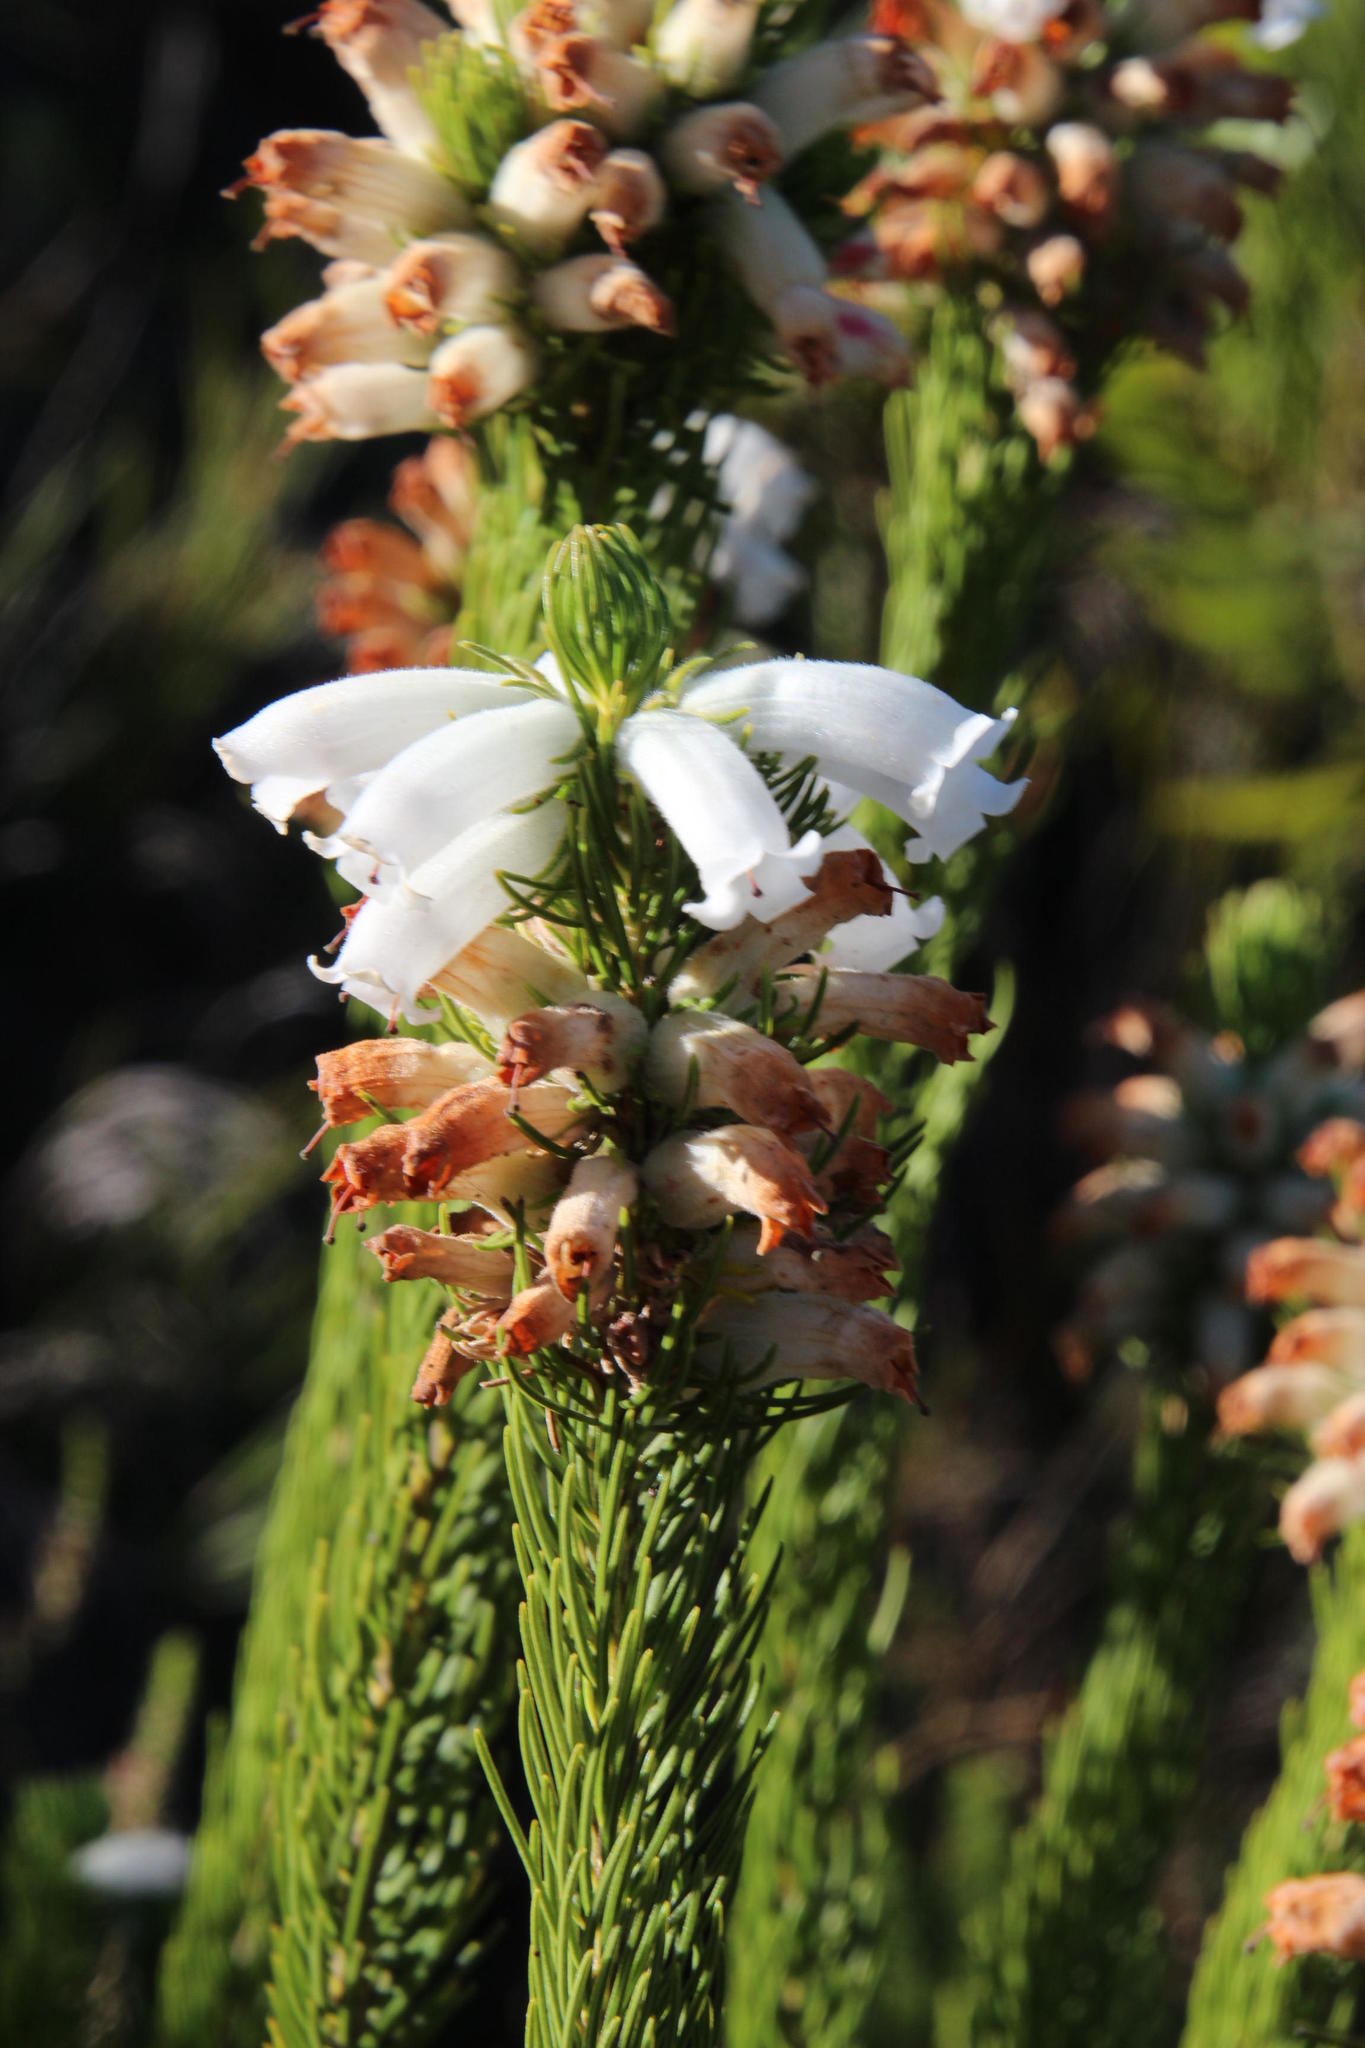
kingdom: Plantae
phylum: Tracheophyta
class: Magnoliopsida
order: Ericales
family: Ericaceae
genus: Erica
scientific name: Erica viscaria
